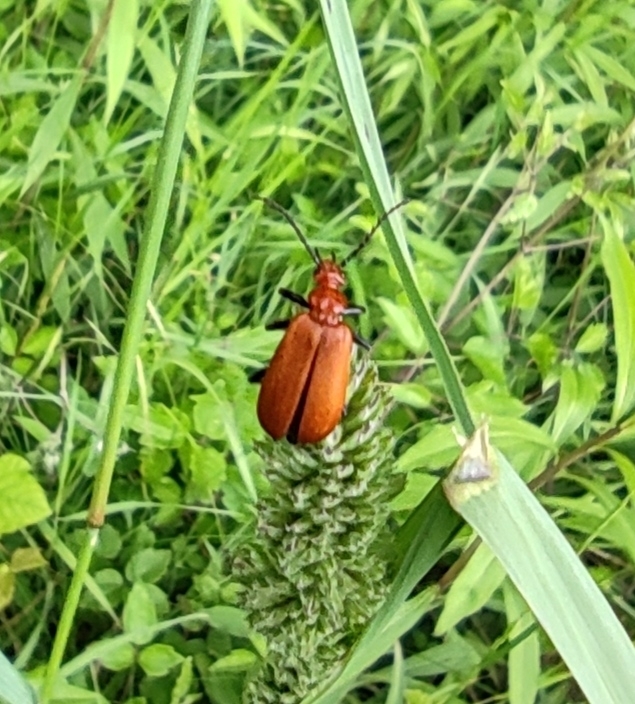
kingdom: Animalia
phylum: Arthropoda
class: Insecta
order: Coleoptera
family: Pyrochroidae
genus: Pyrochroa
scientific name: Pyrochroa serraticornis
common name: Red-headed cardinal beetle
